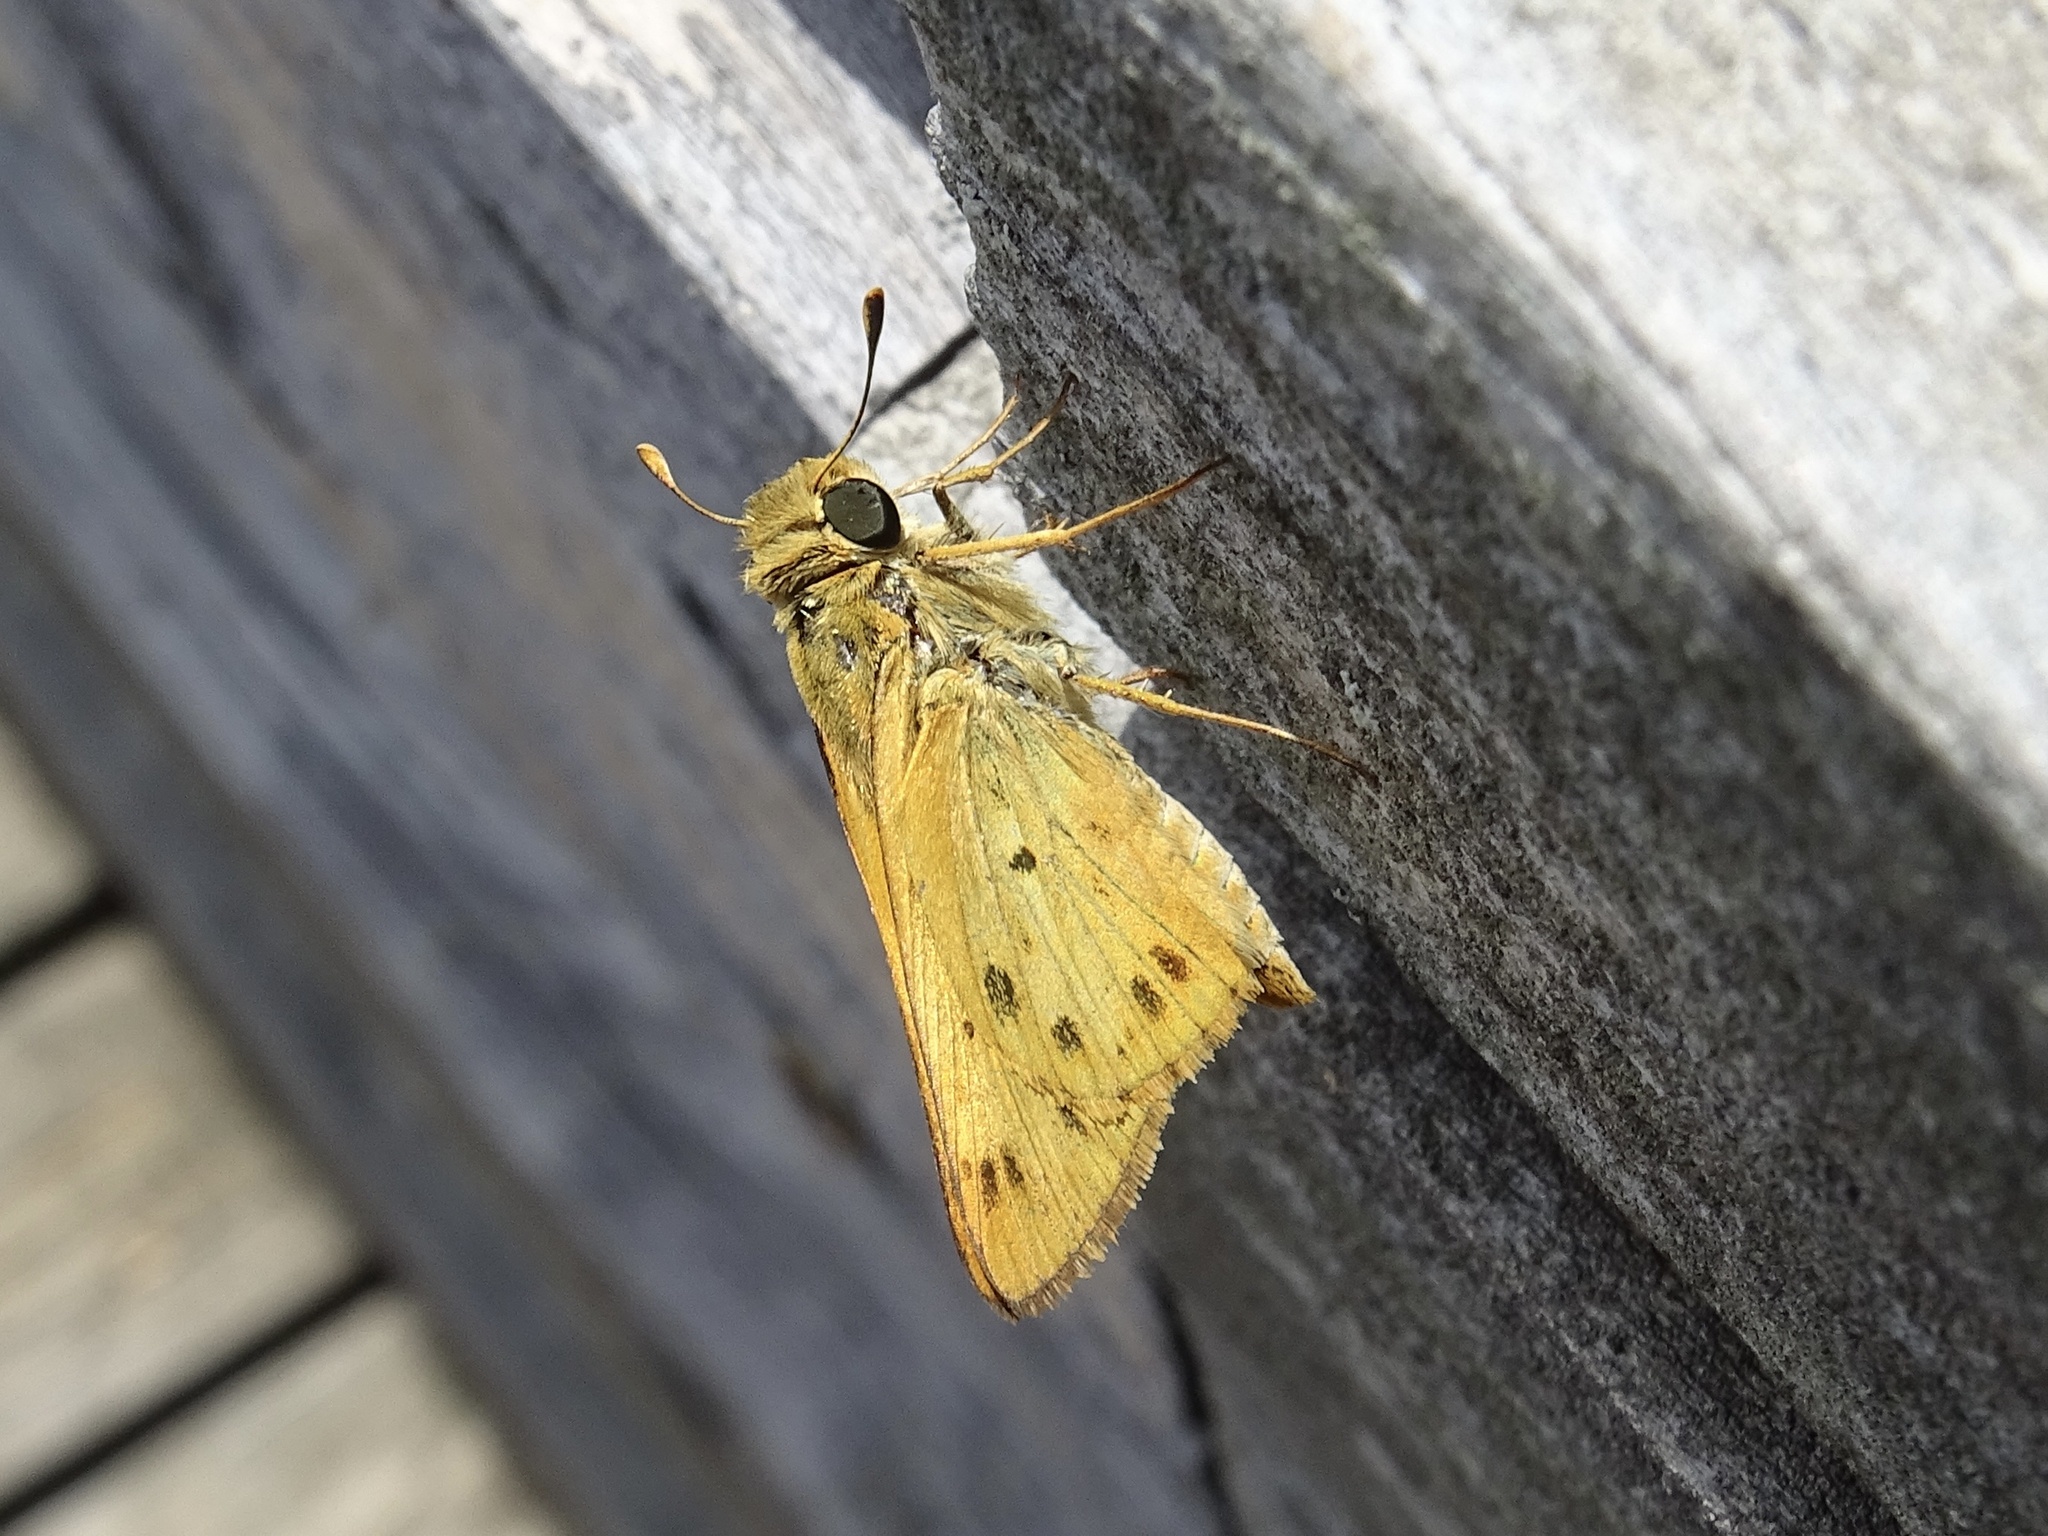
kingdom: Animalia
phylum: Arthropoda
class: Insecta
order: Lepidoptera
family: Hesperiidae
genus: Hylephila
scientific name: Hylephila phyleus
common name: Fiery skipper
